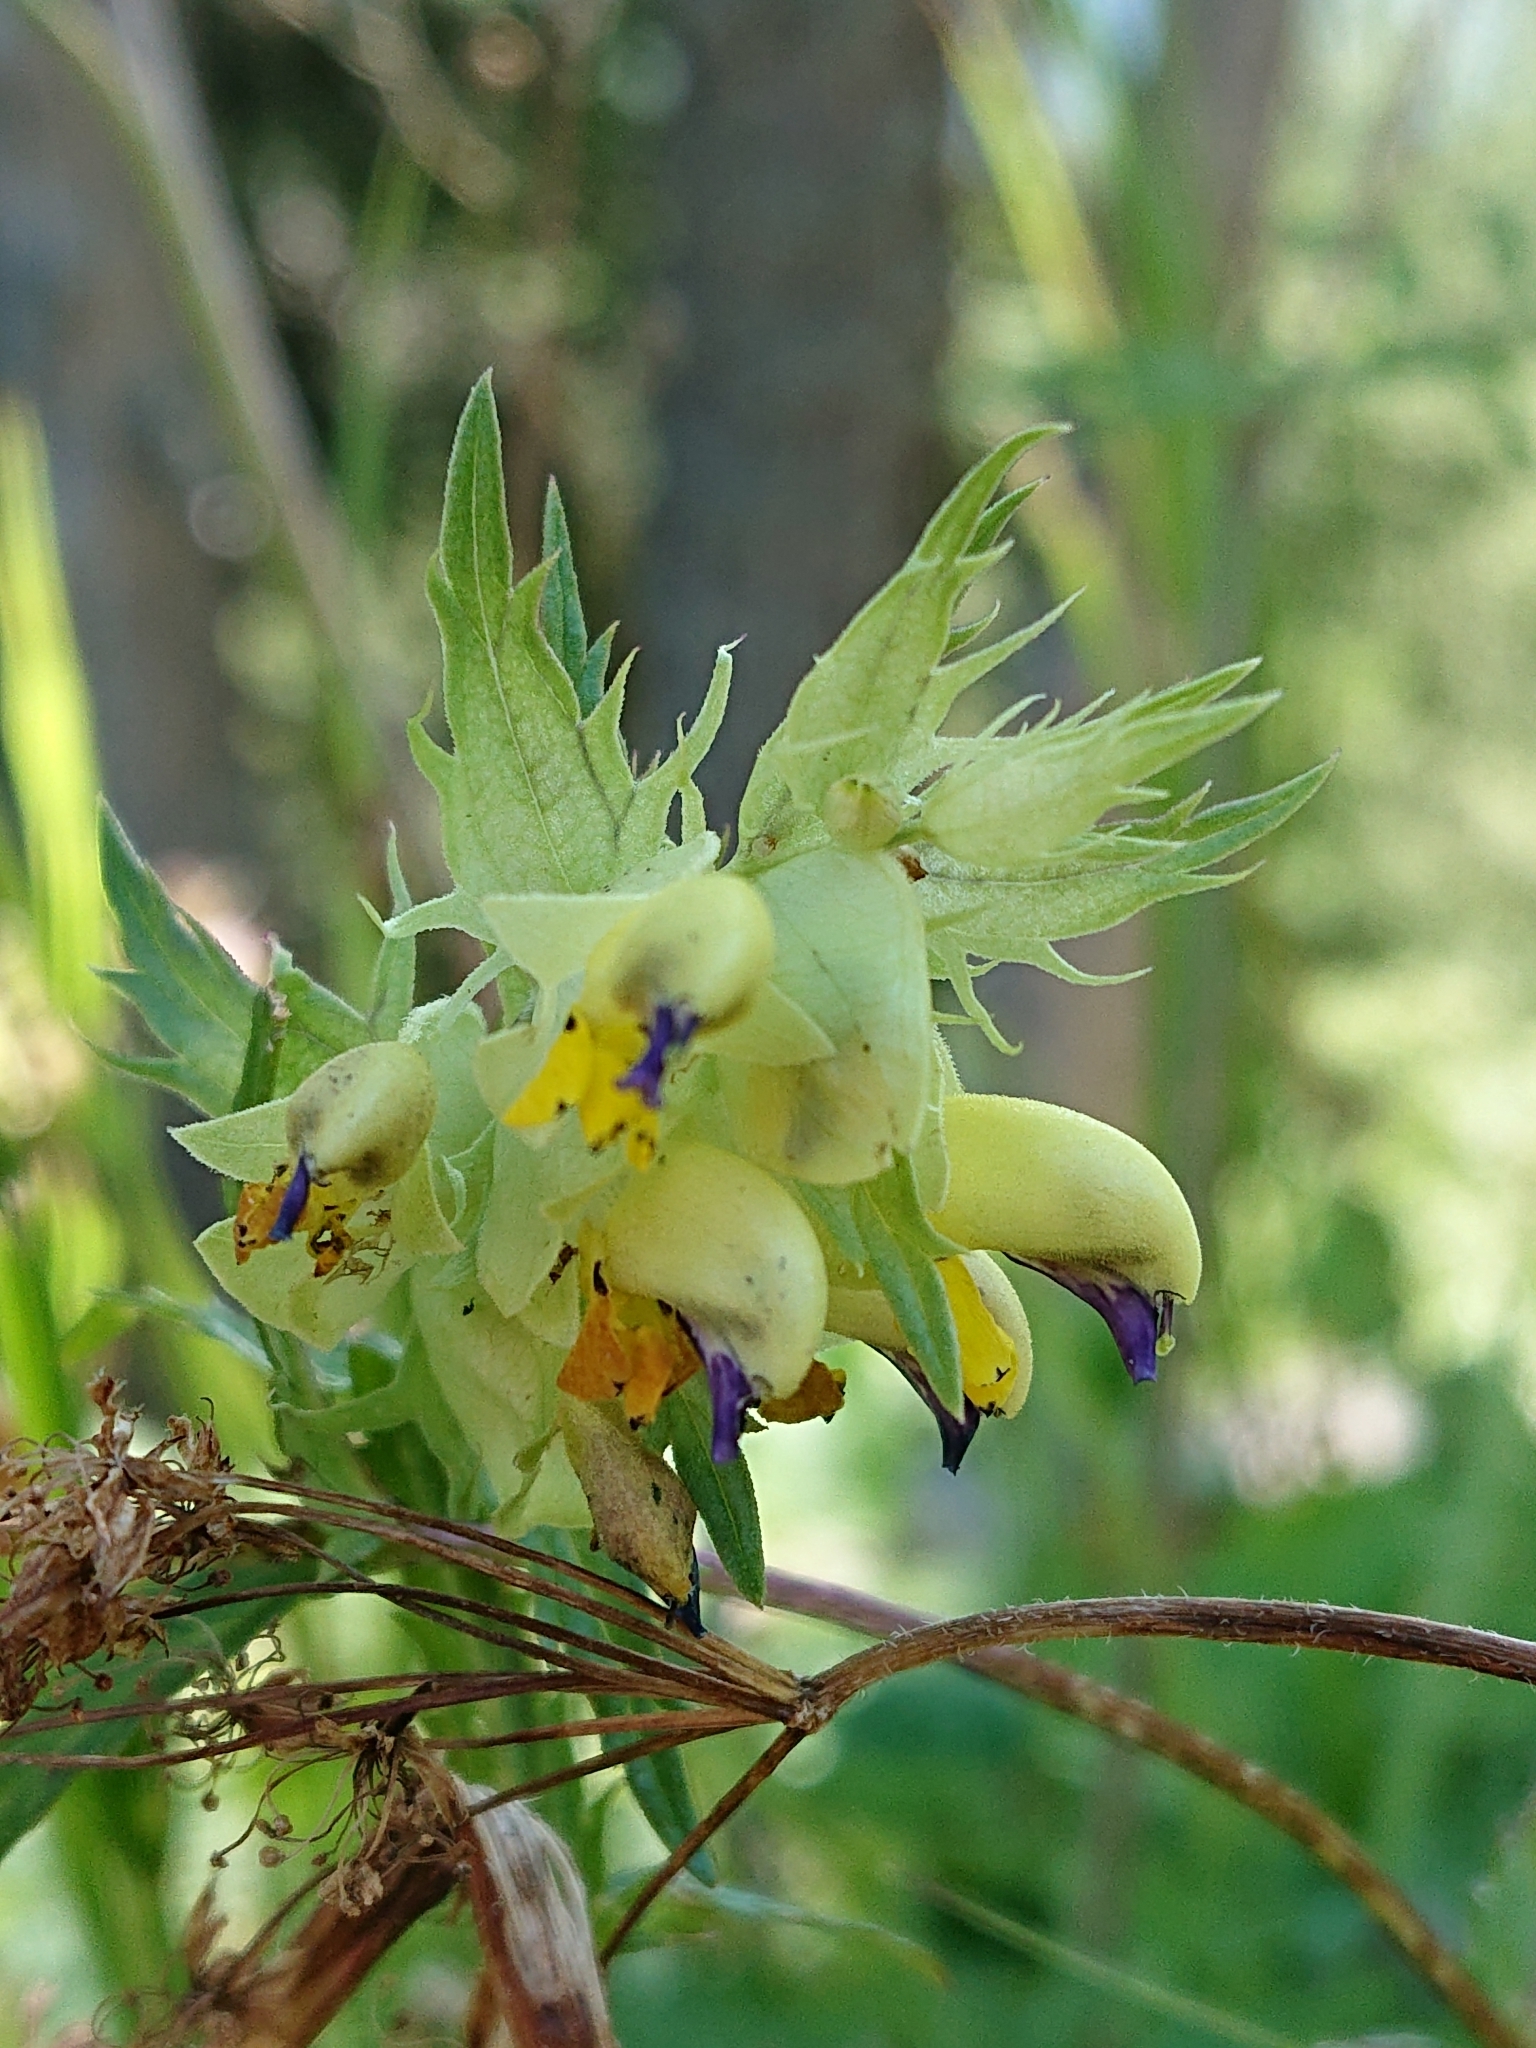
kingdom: Plantae
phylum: Tracheophyta
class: Magnoliopsida
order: Lamiales
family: Orobanchaceae
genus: Rhinanthus
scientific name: Rhinanthus ovifugus
